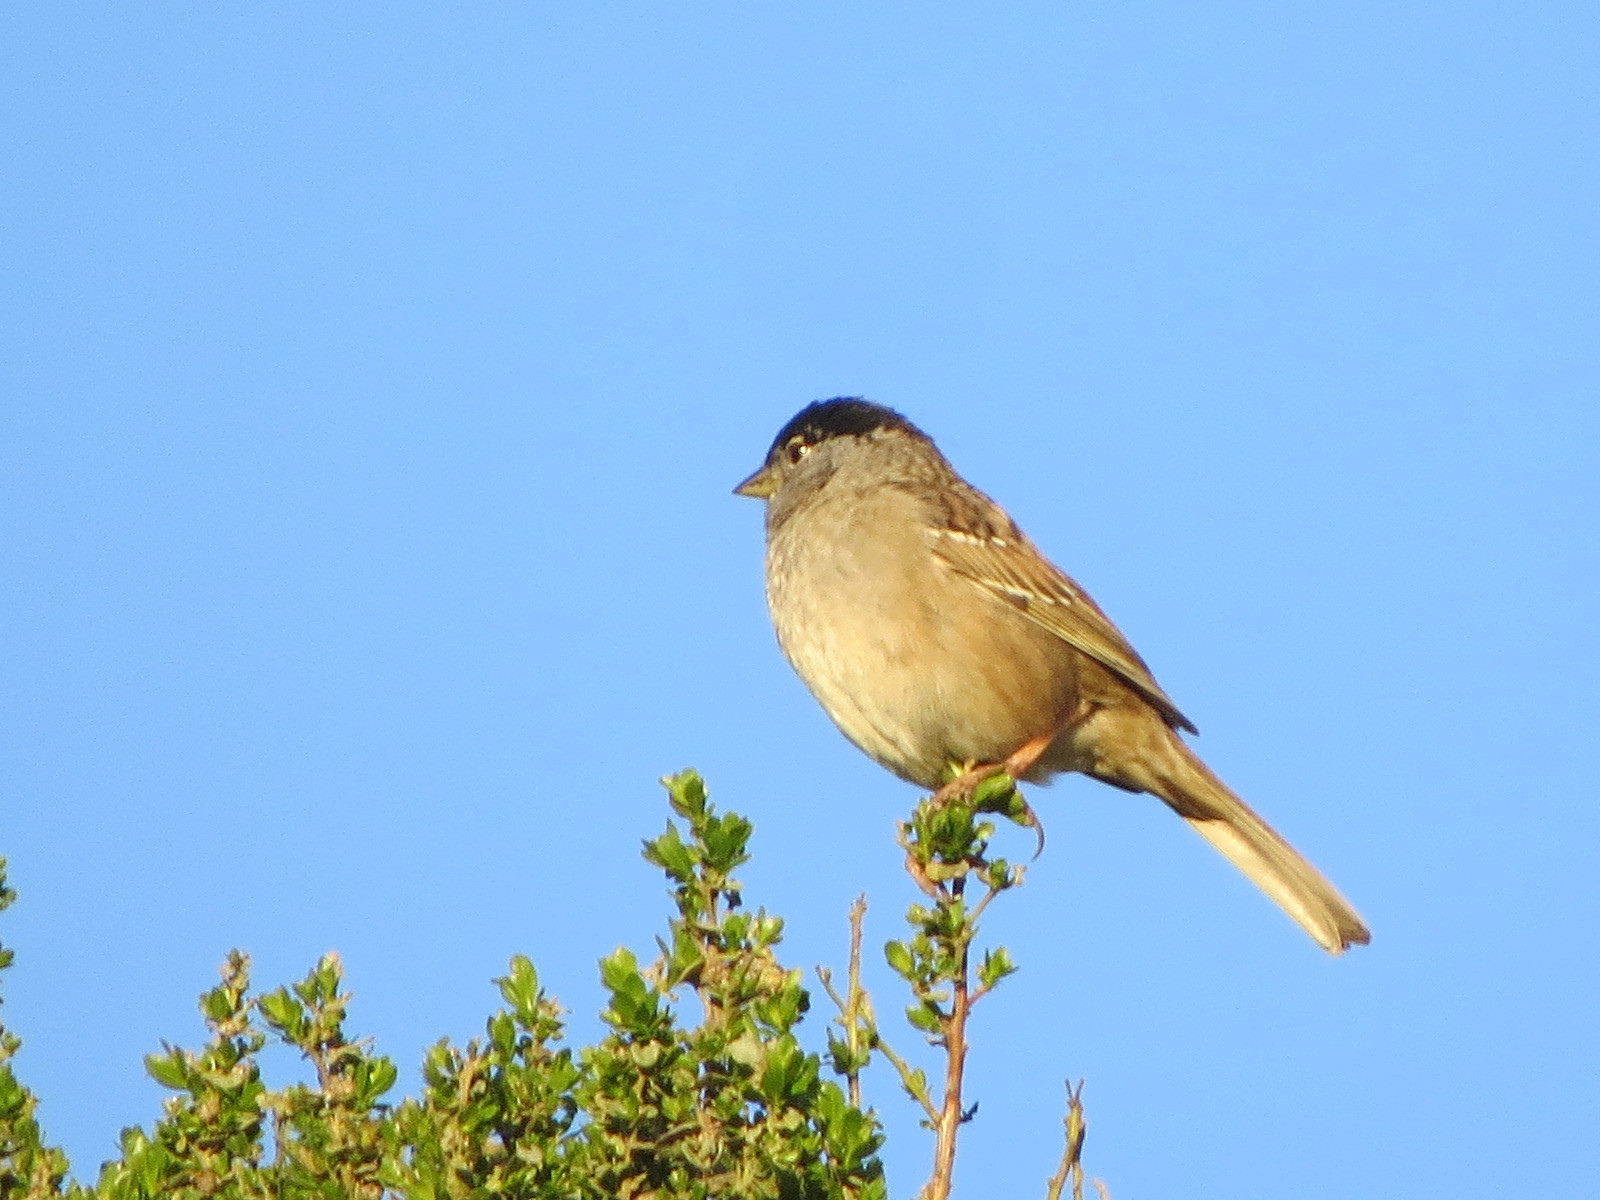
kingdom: Animalia
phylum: Chordata
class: Aves
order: Passeriformes
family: Passerellidae
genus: Zonotrichia
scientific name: Zonotrichia atricapilla
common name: Golden-crowned sparrow
